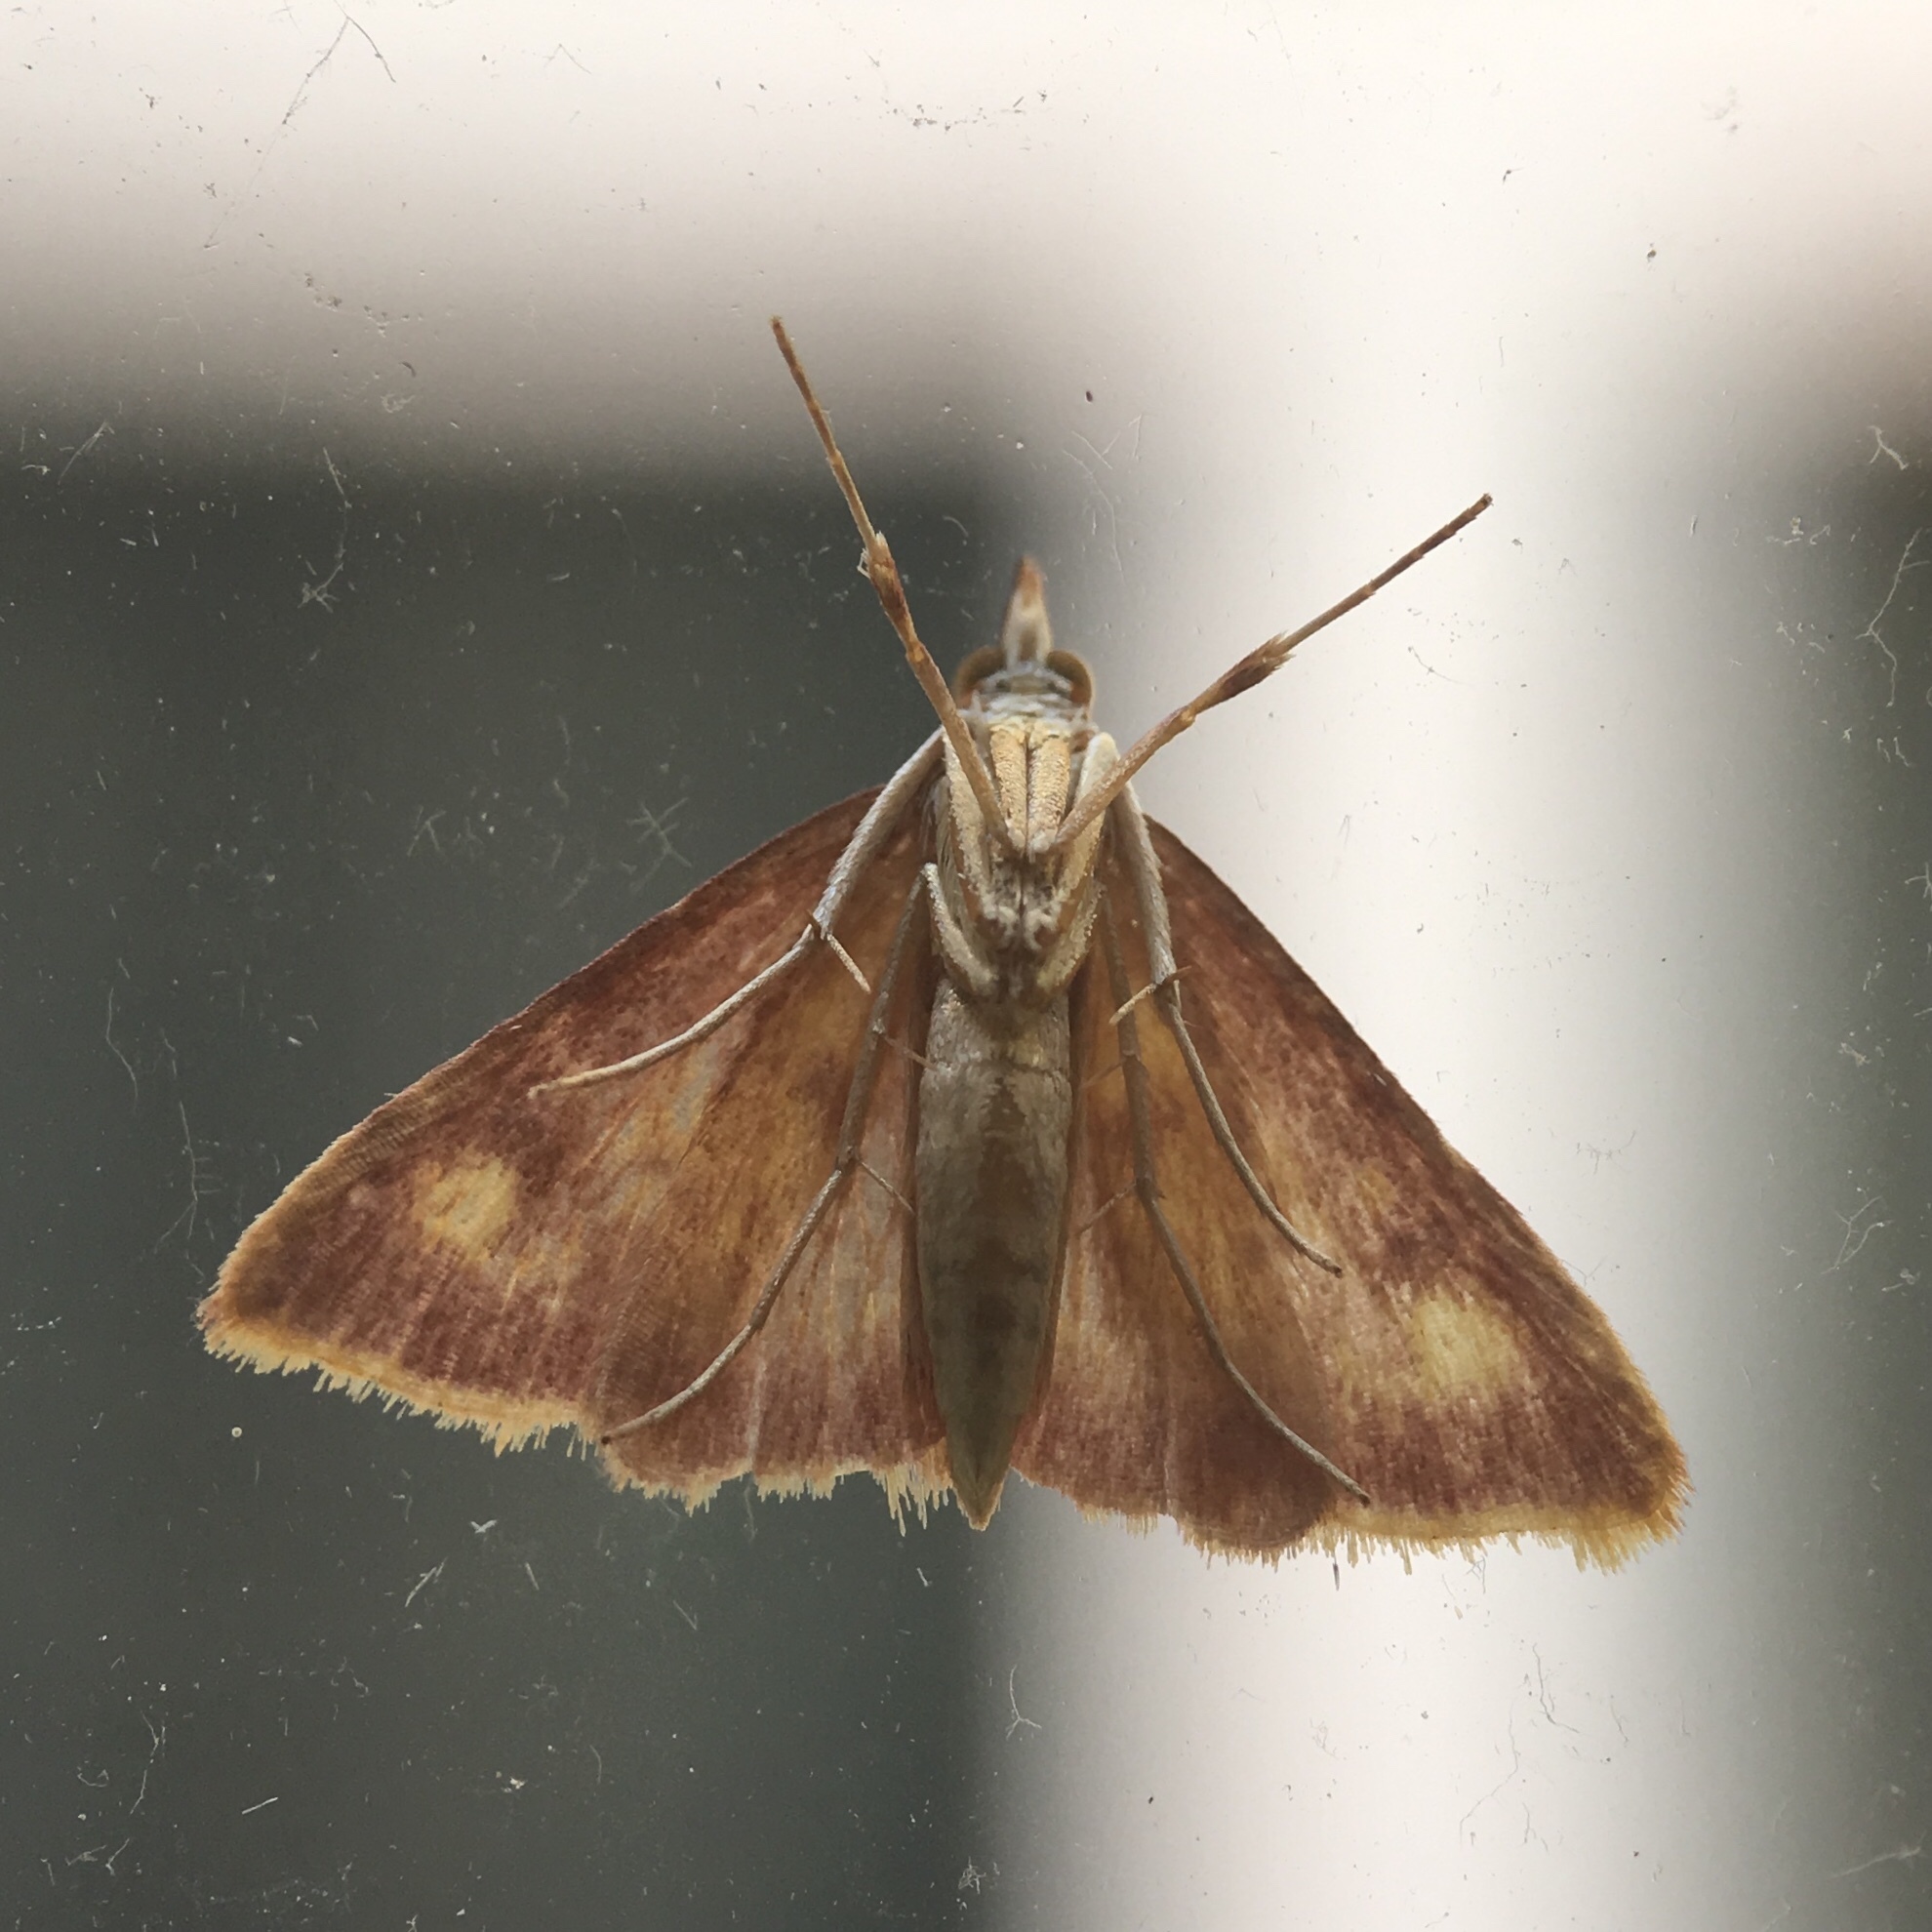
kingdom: Animalia
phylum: Arthropoda
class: Insecta
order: Lepidoptera
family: Crambidae
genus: Pyrausta
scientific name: Pyrausta acrionalis
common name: Mint-loving pyrausta moth
